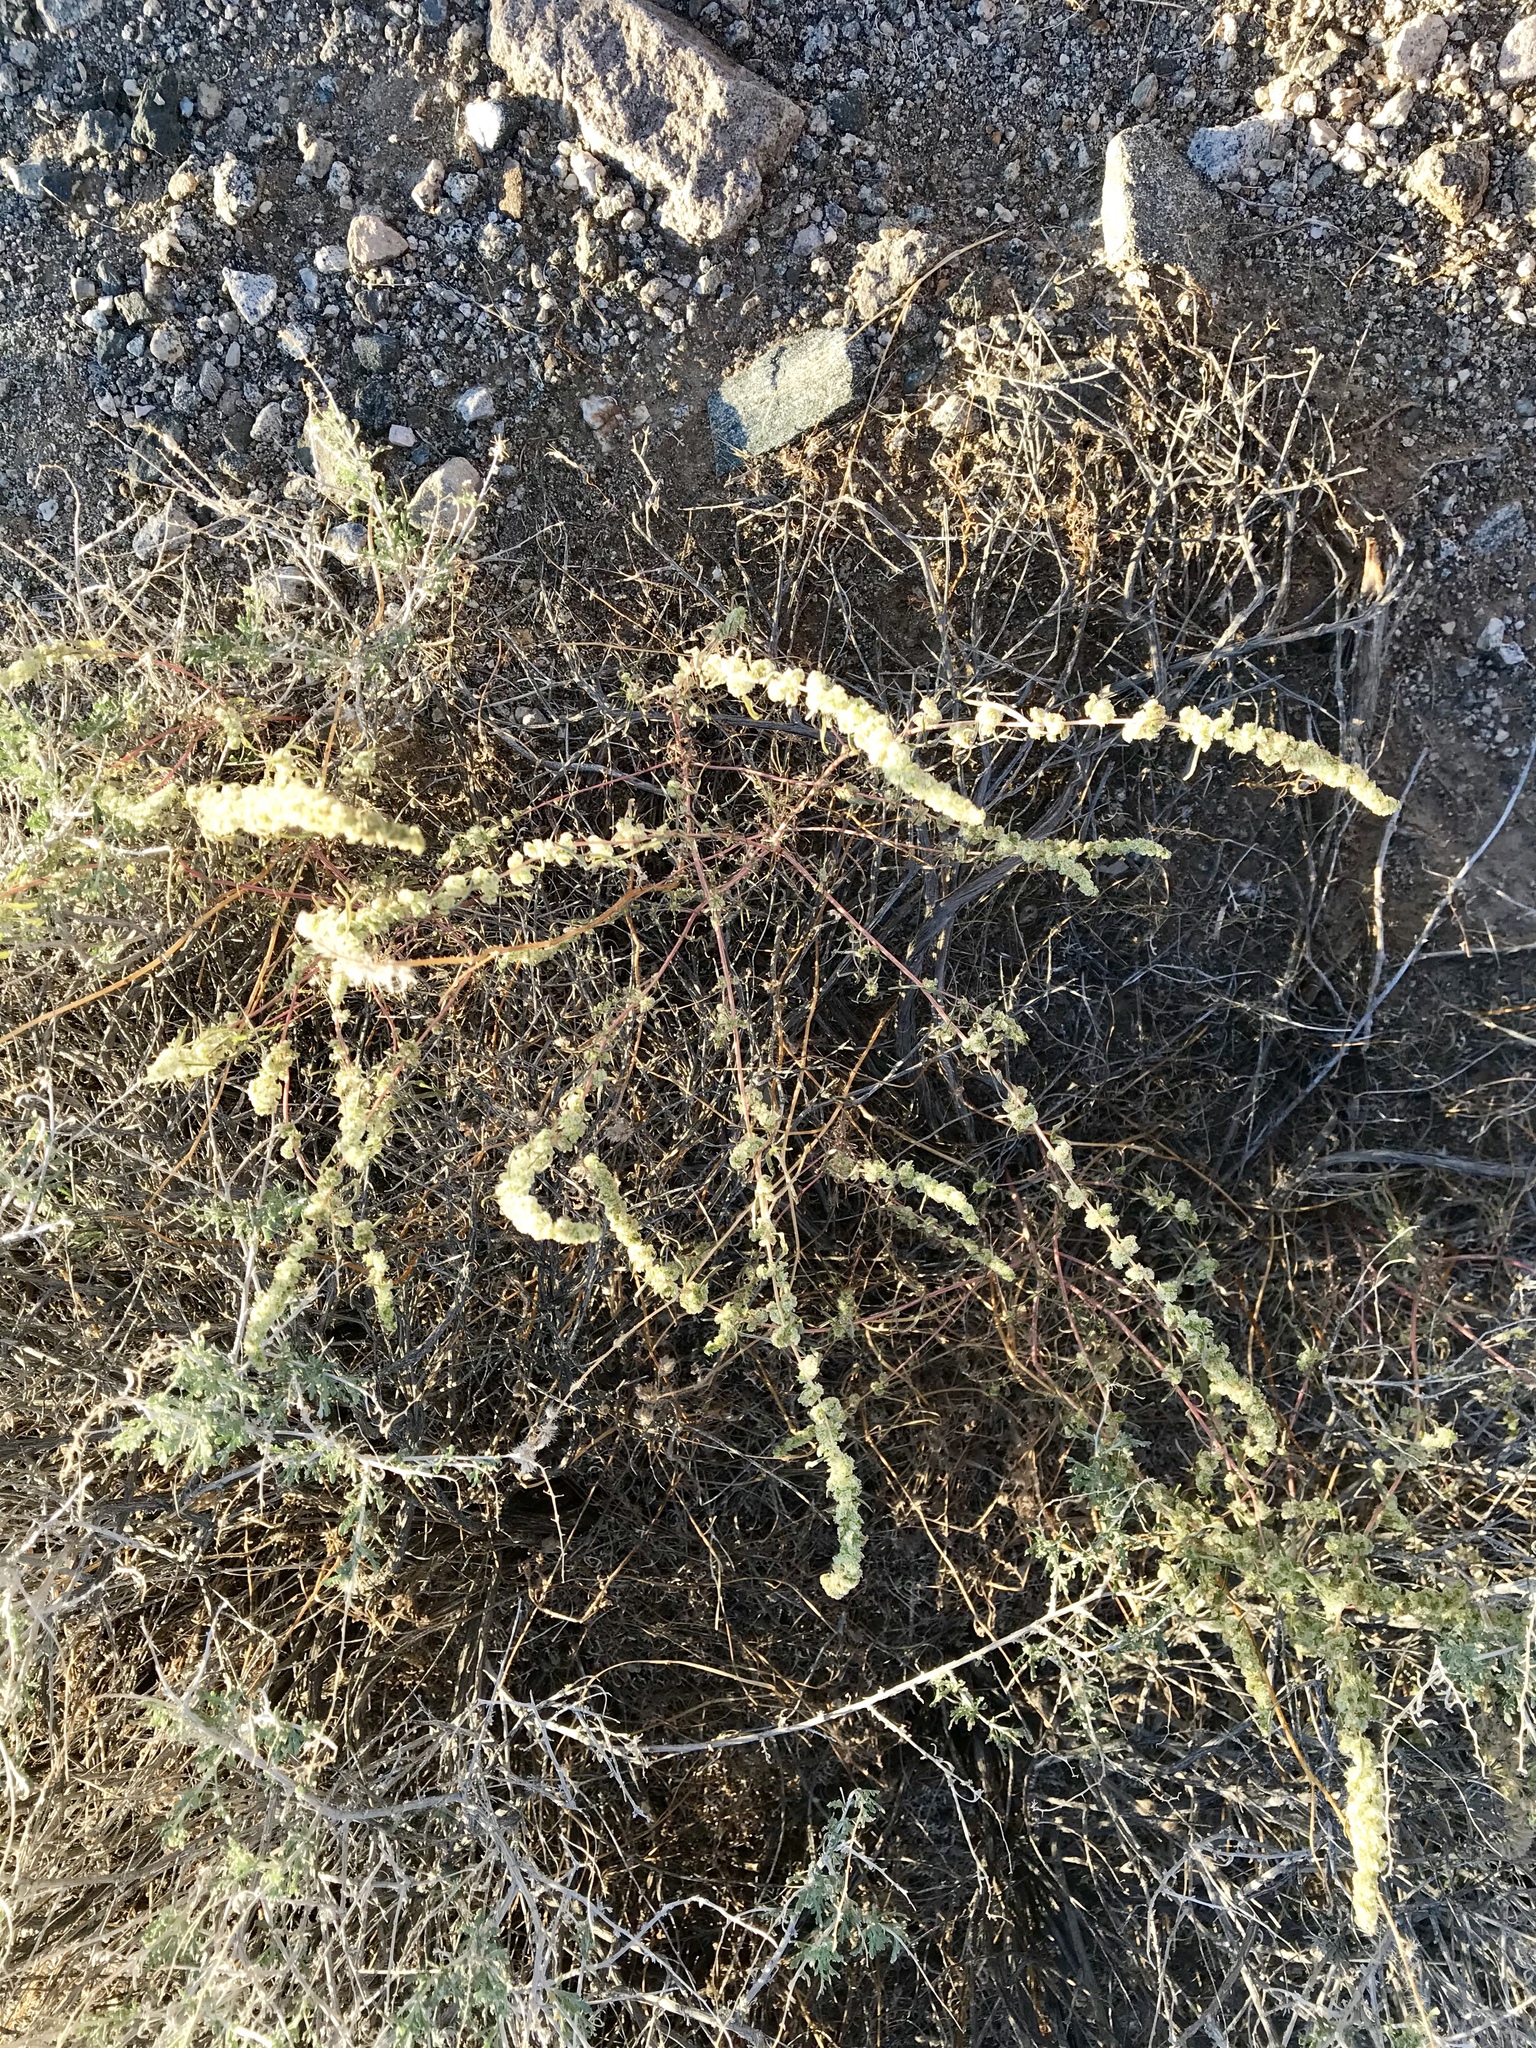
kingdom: Plantae
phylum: Tracheophyta
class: Magnoliopsida
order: Caryophyllales
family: Amaranthaceae
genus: Amaranthus
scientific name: Amaranthus fimbriatus
